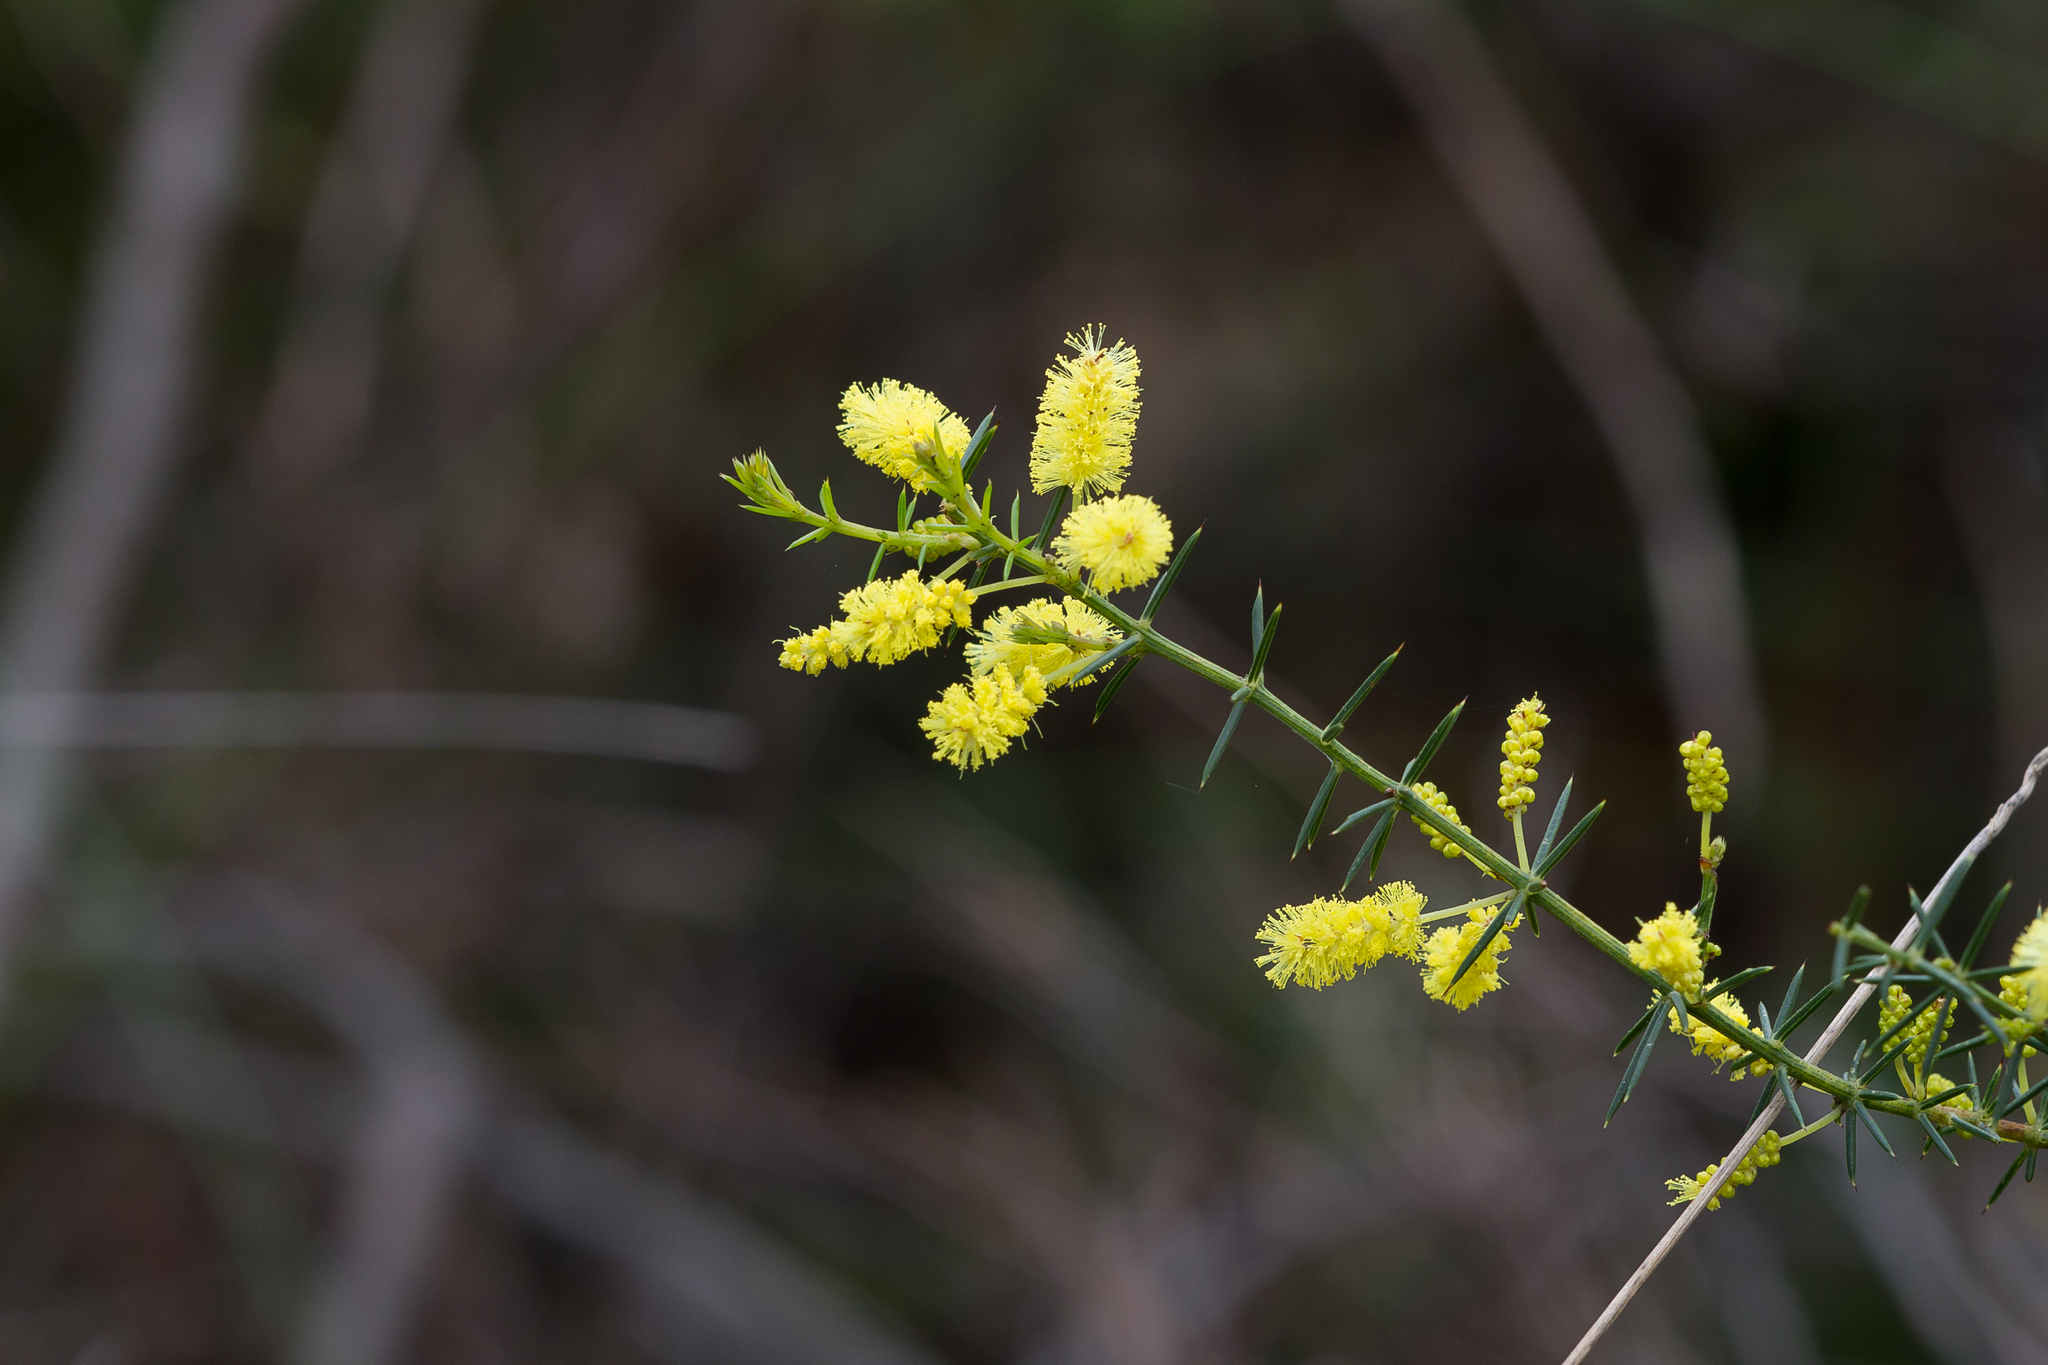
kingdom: Plantae
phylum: Tracheophyta
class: Magnoliopsida
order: Fabales
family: Fabaceae
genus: Acacia
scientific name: Acacia verticillata
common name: Prickly moses
